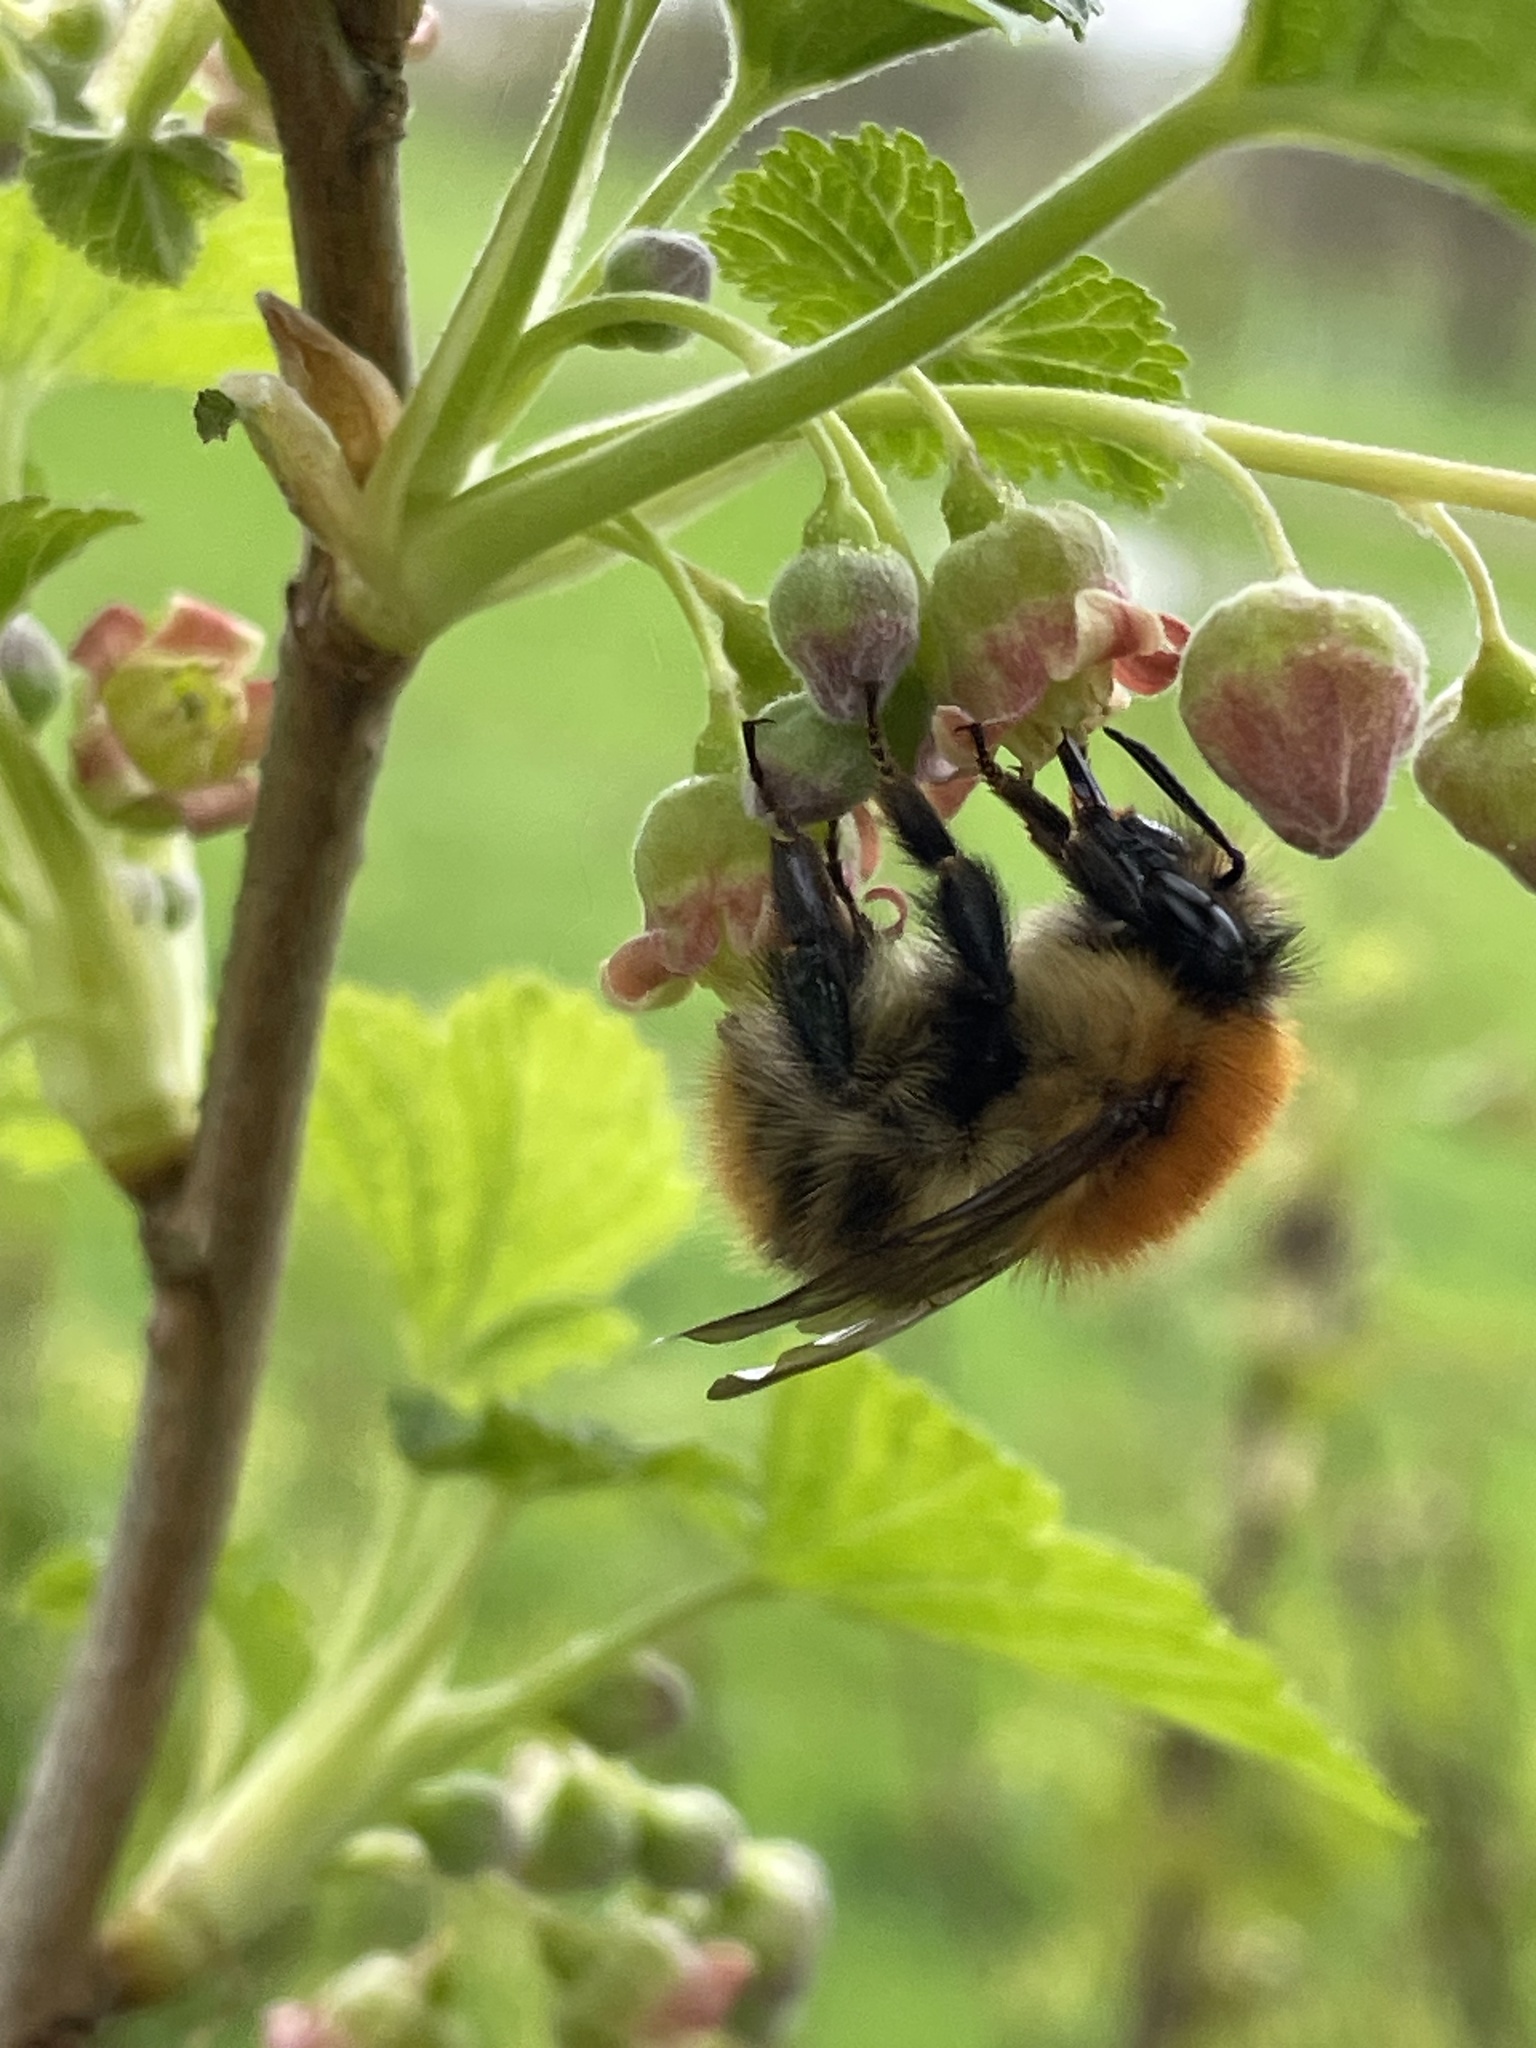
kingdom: Animalia
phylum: Arthropoda
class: Insecta
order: Hymenoptera
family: Apidae
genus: Bombus
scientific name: Bombus pascuorum
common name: Common carder bee
